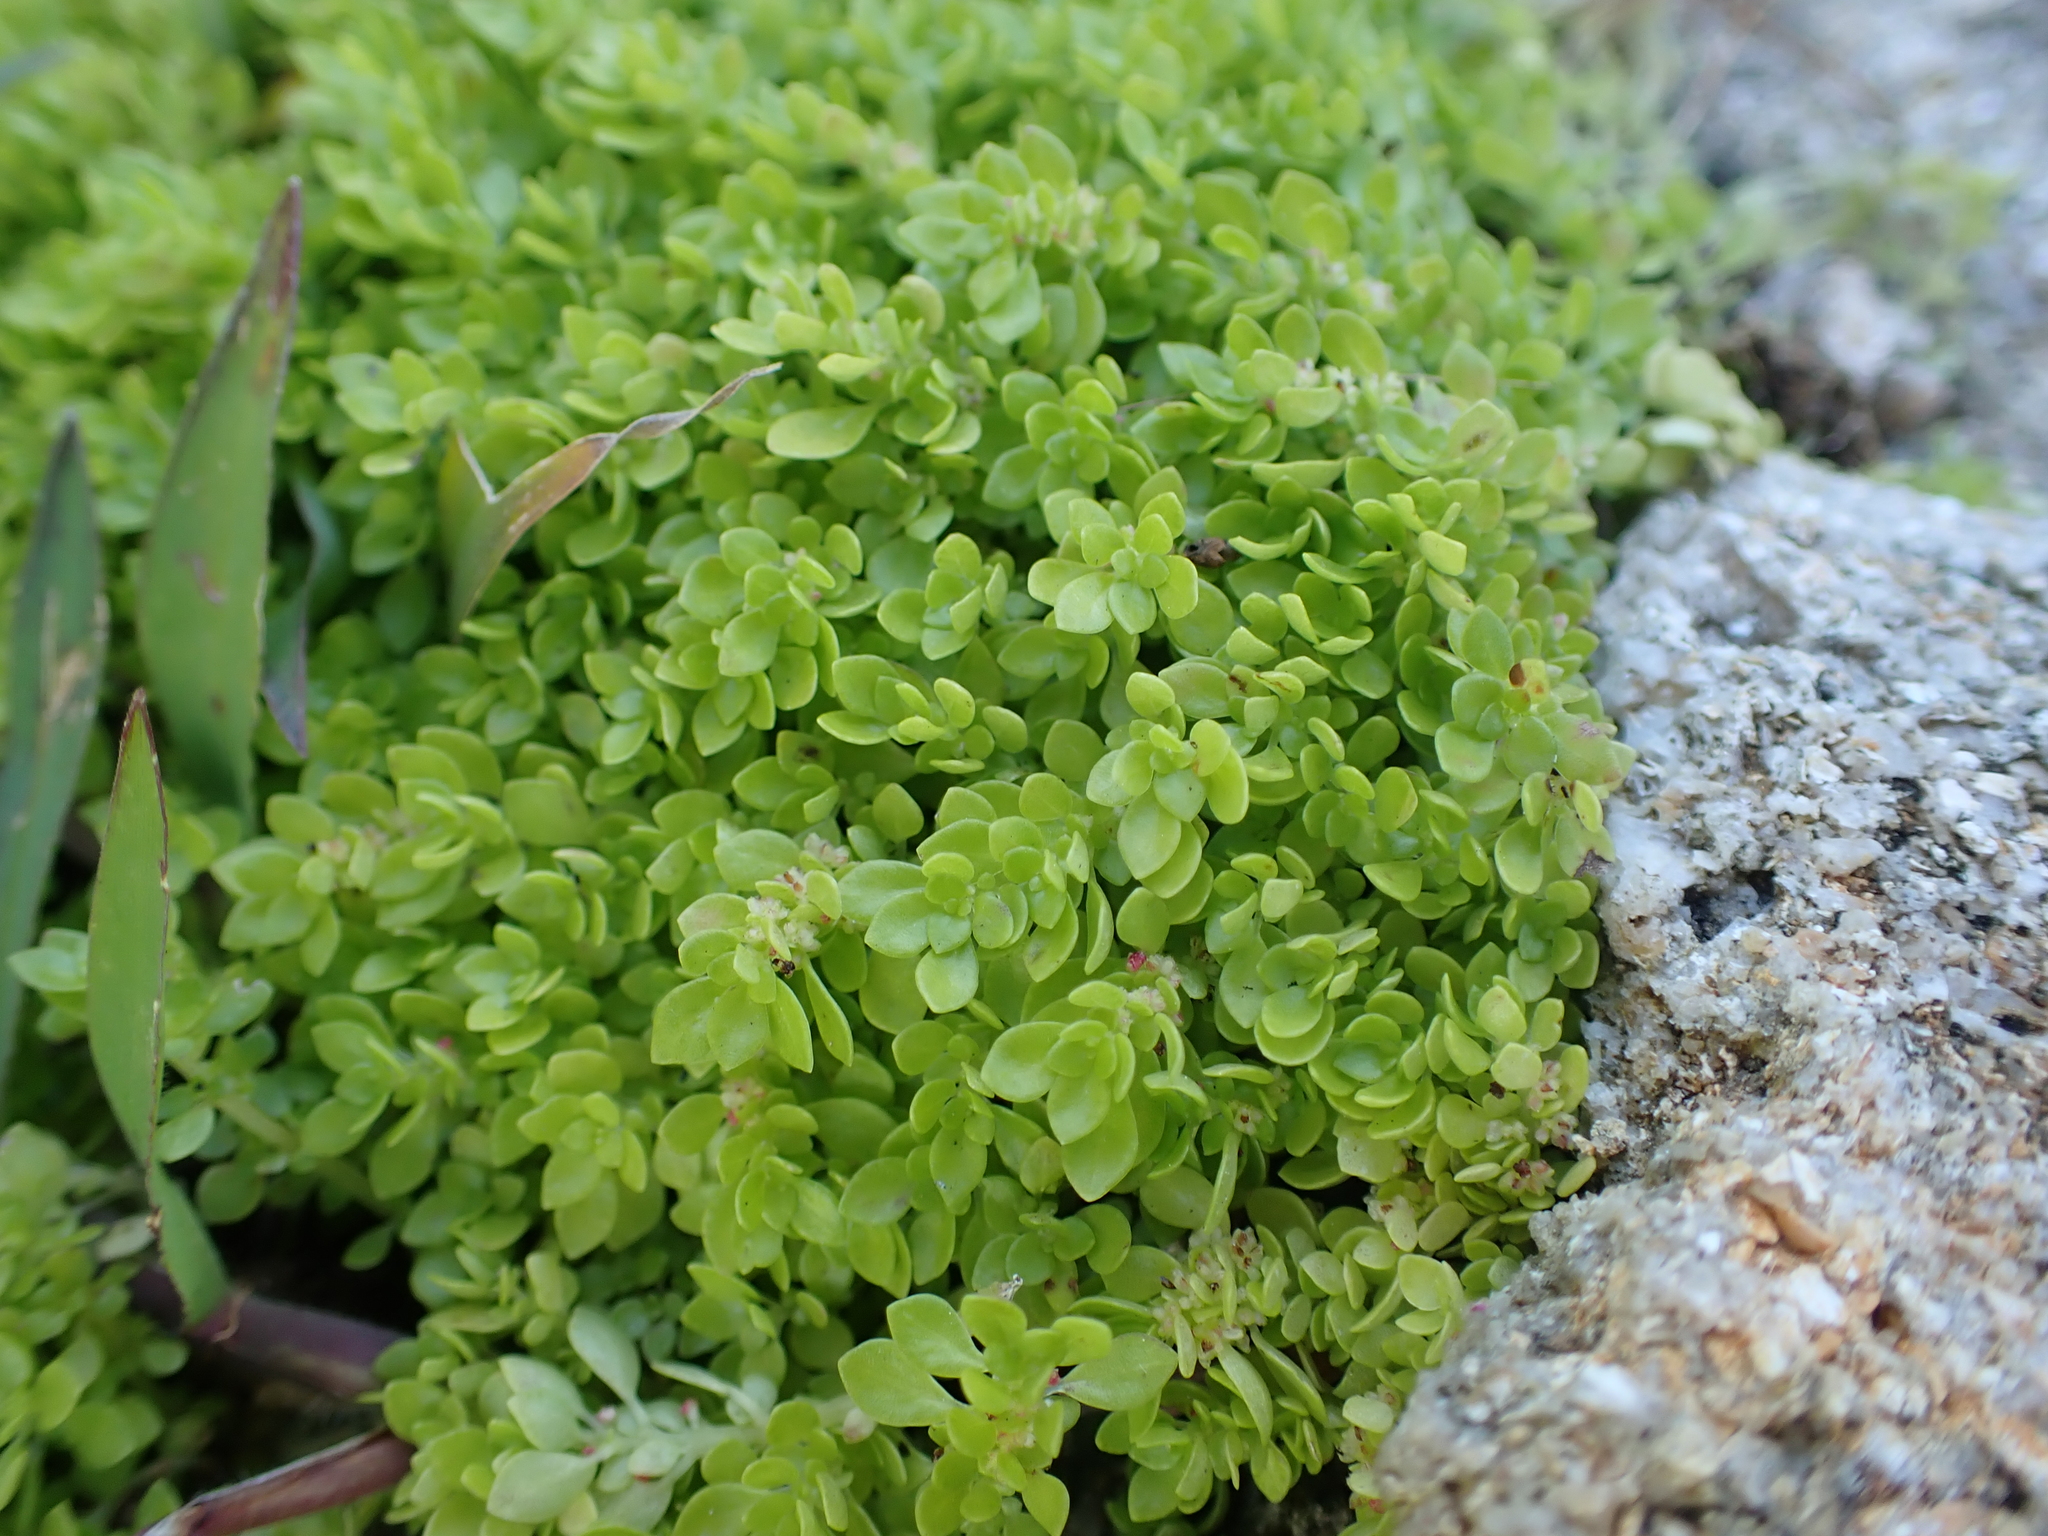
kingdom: Plantae
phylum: Tracheophyta
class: Magnoliopsida
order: Rosales
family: Urticaceae
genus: Pilea
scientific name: Pilea microphylla
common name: Artillery-plant
